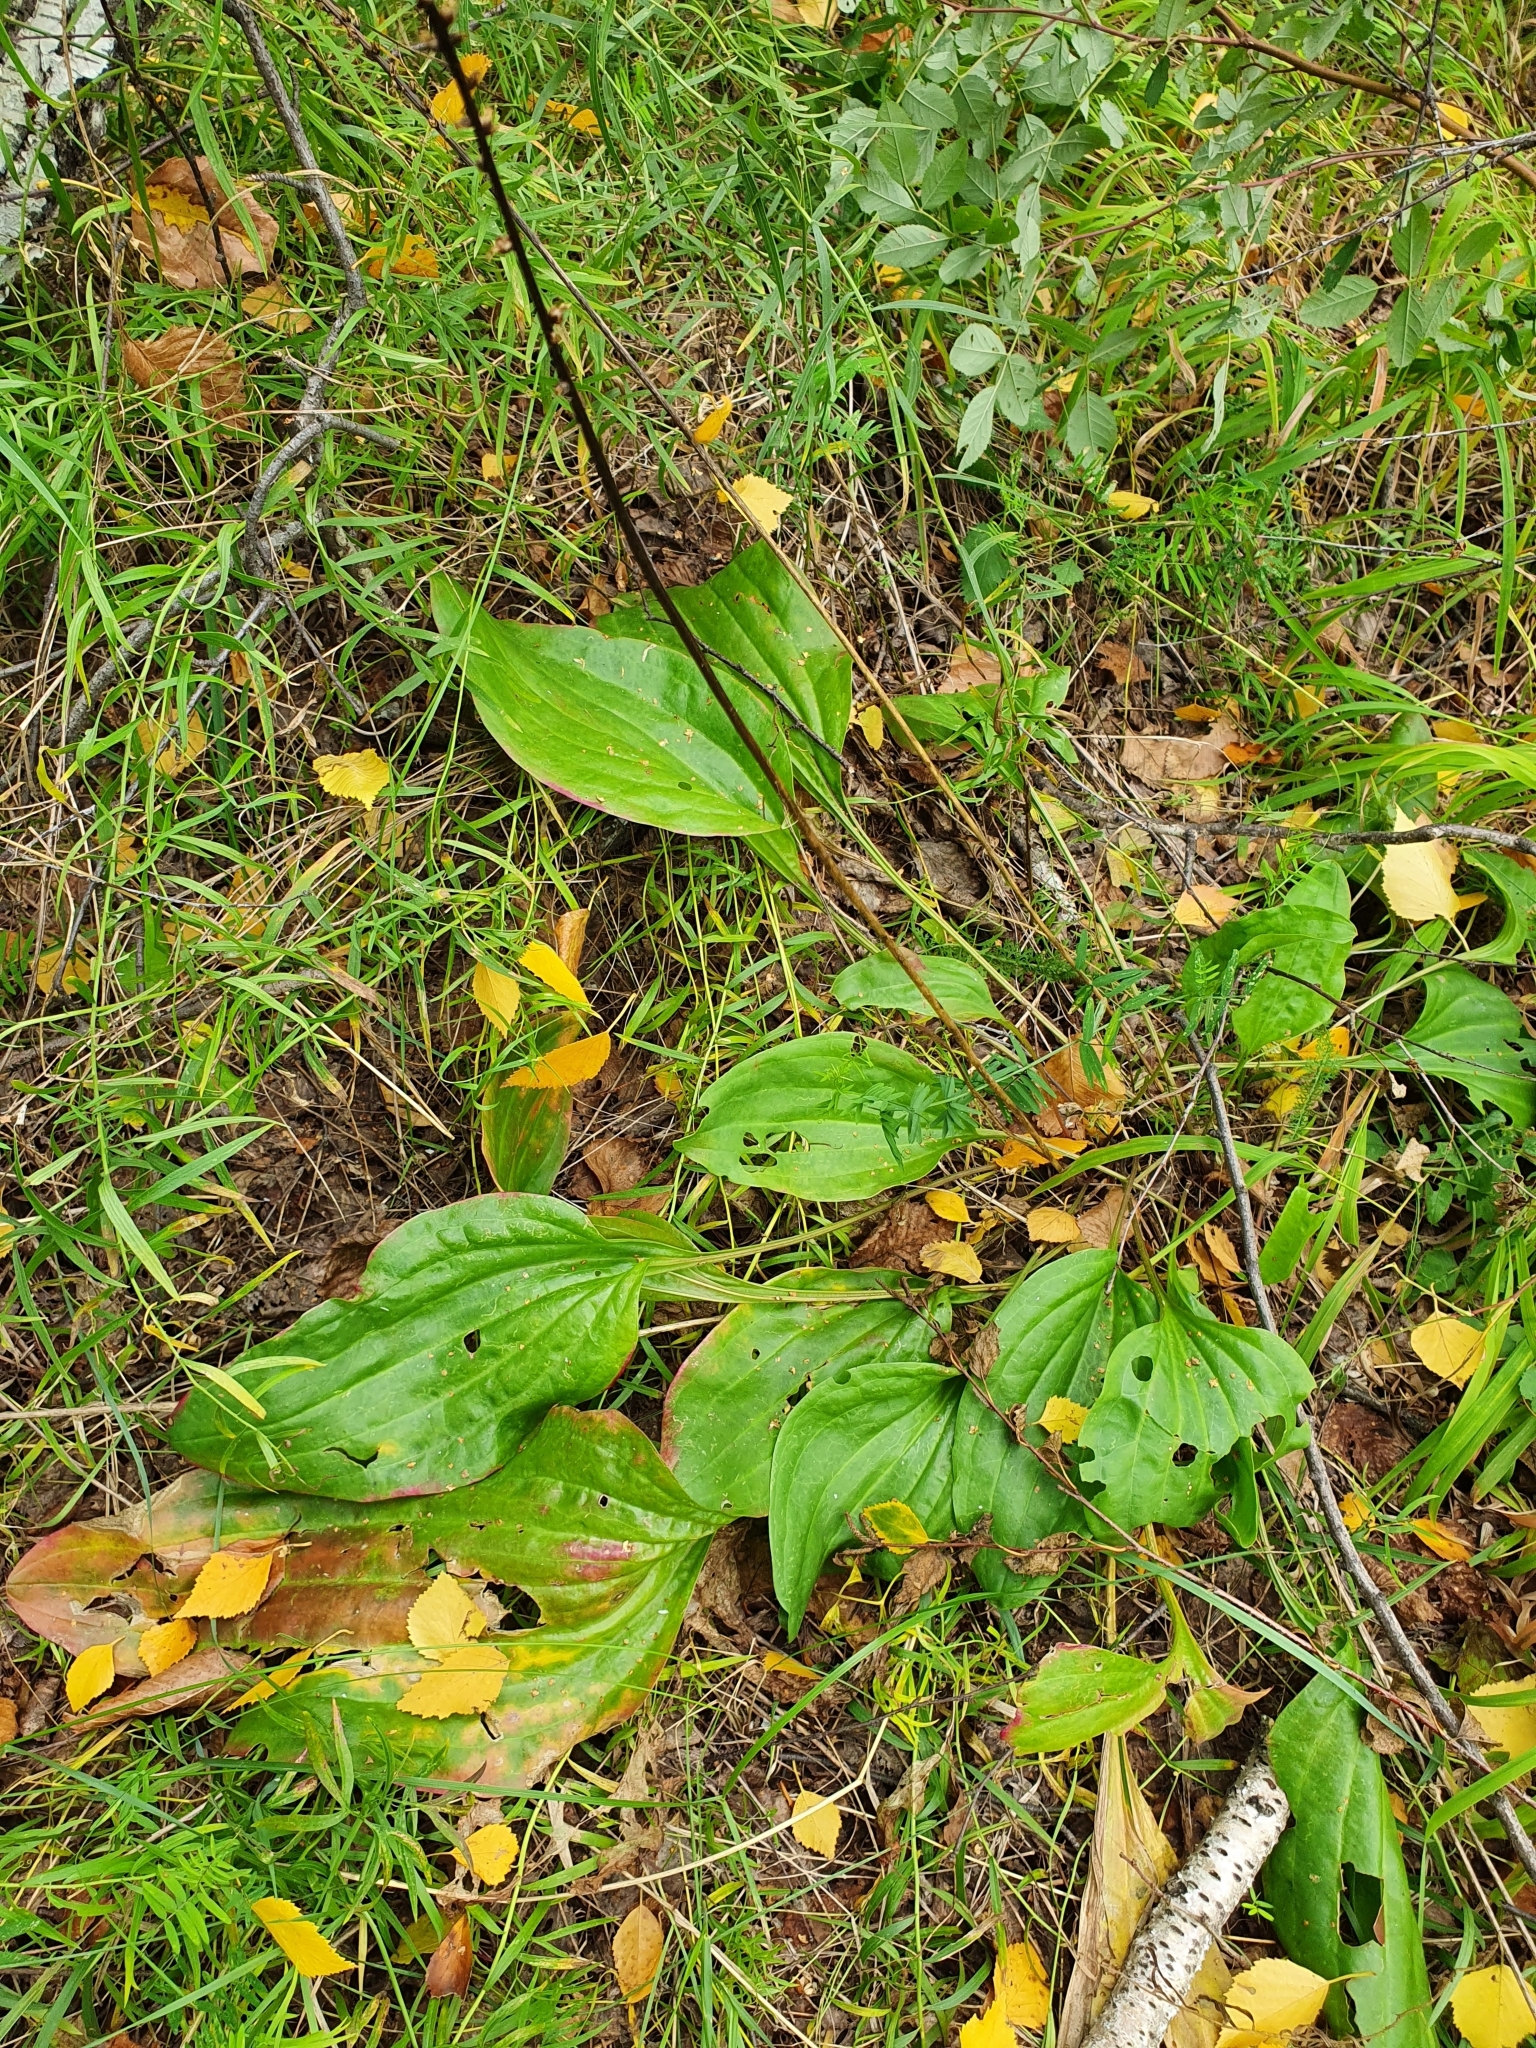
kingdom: Plantae
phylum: Tracheophyta
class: Magnoliopsida
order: Lamiales
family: Plantaginaceae
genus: Plantago
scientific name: Plantago cornuti
